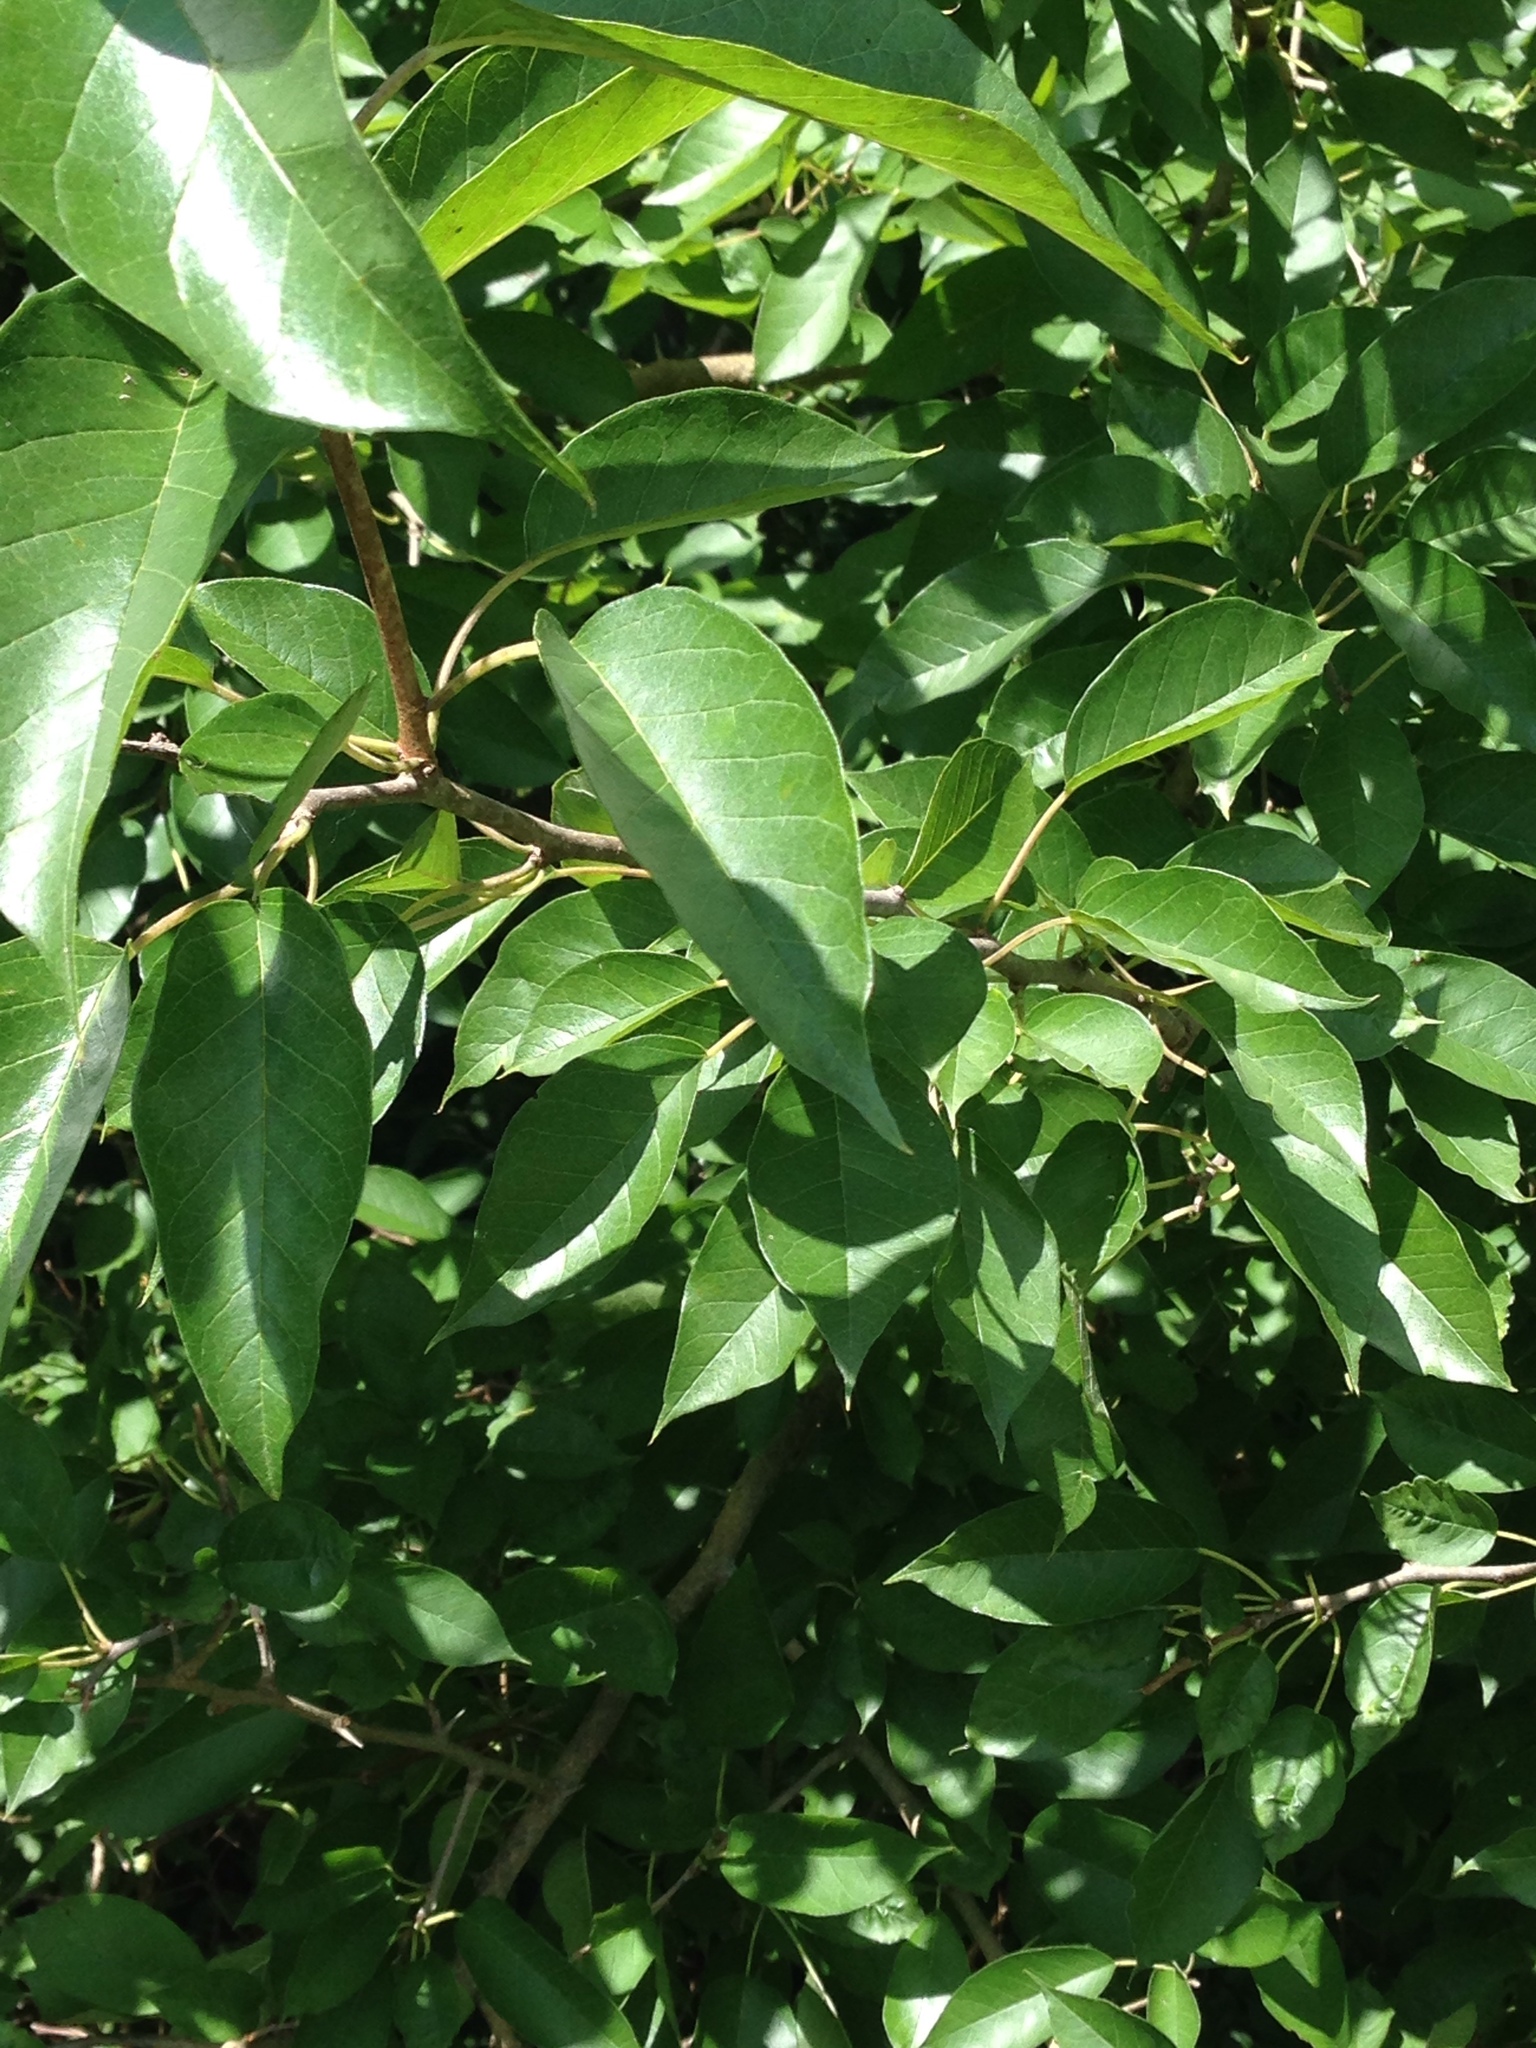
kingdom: Plantae
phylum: Tracheophyta
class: Magnoliopsida
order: Rosales
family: Moraceae
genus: Maclura
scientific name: Maclura pomifera
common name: Osage-orange
